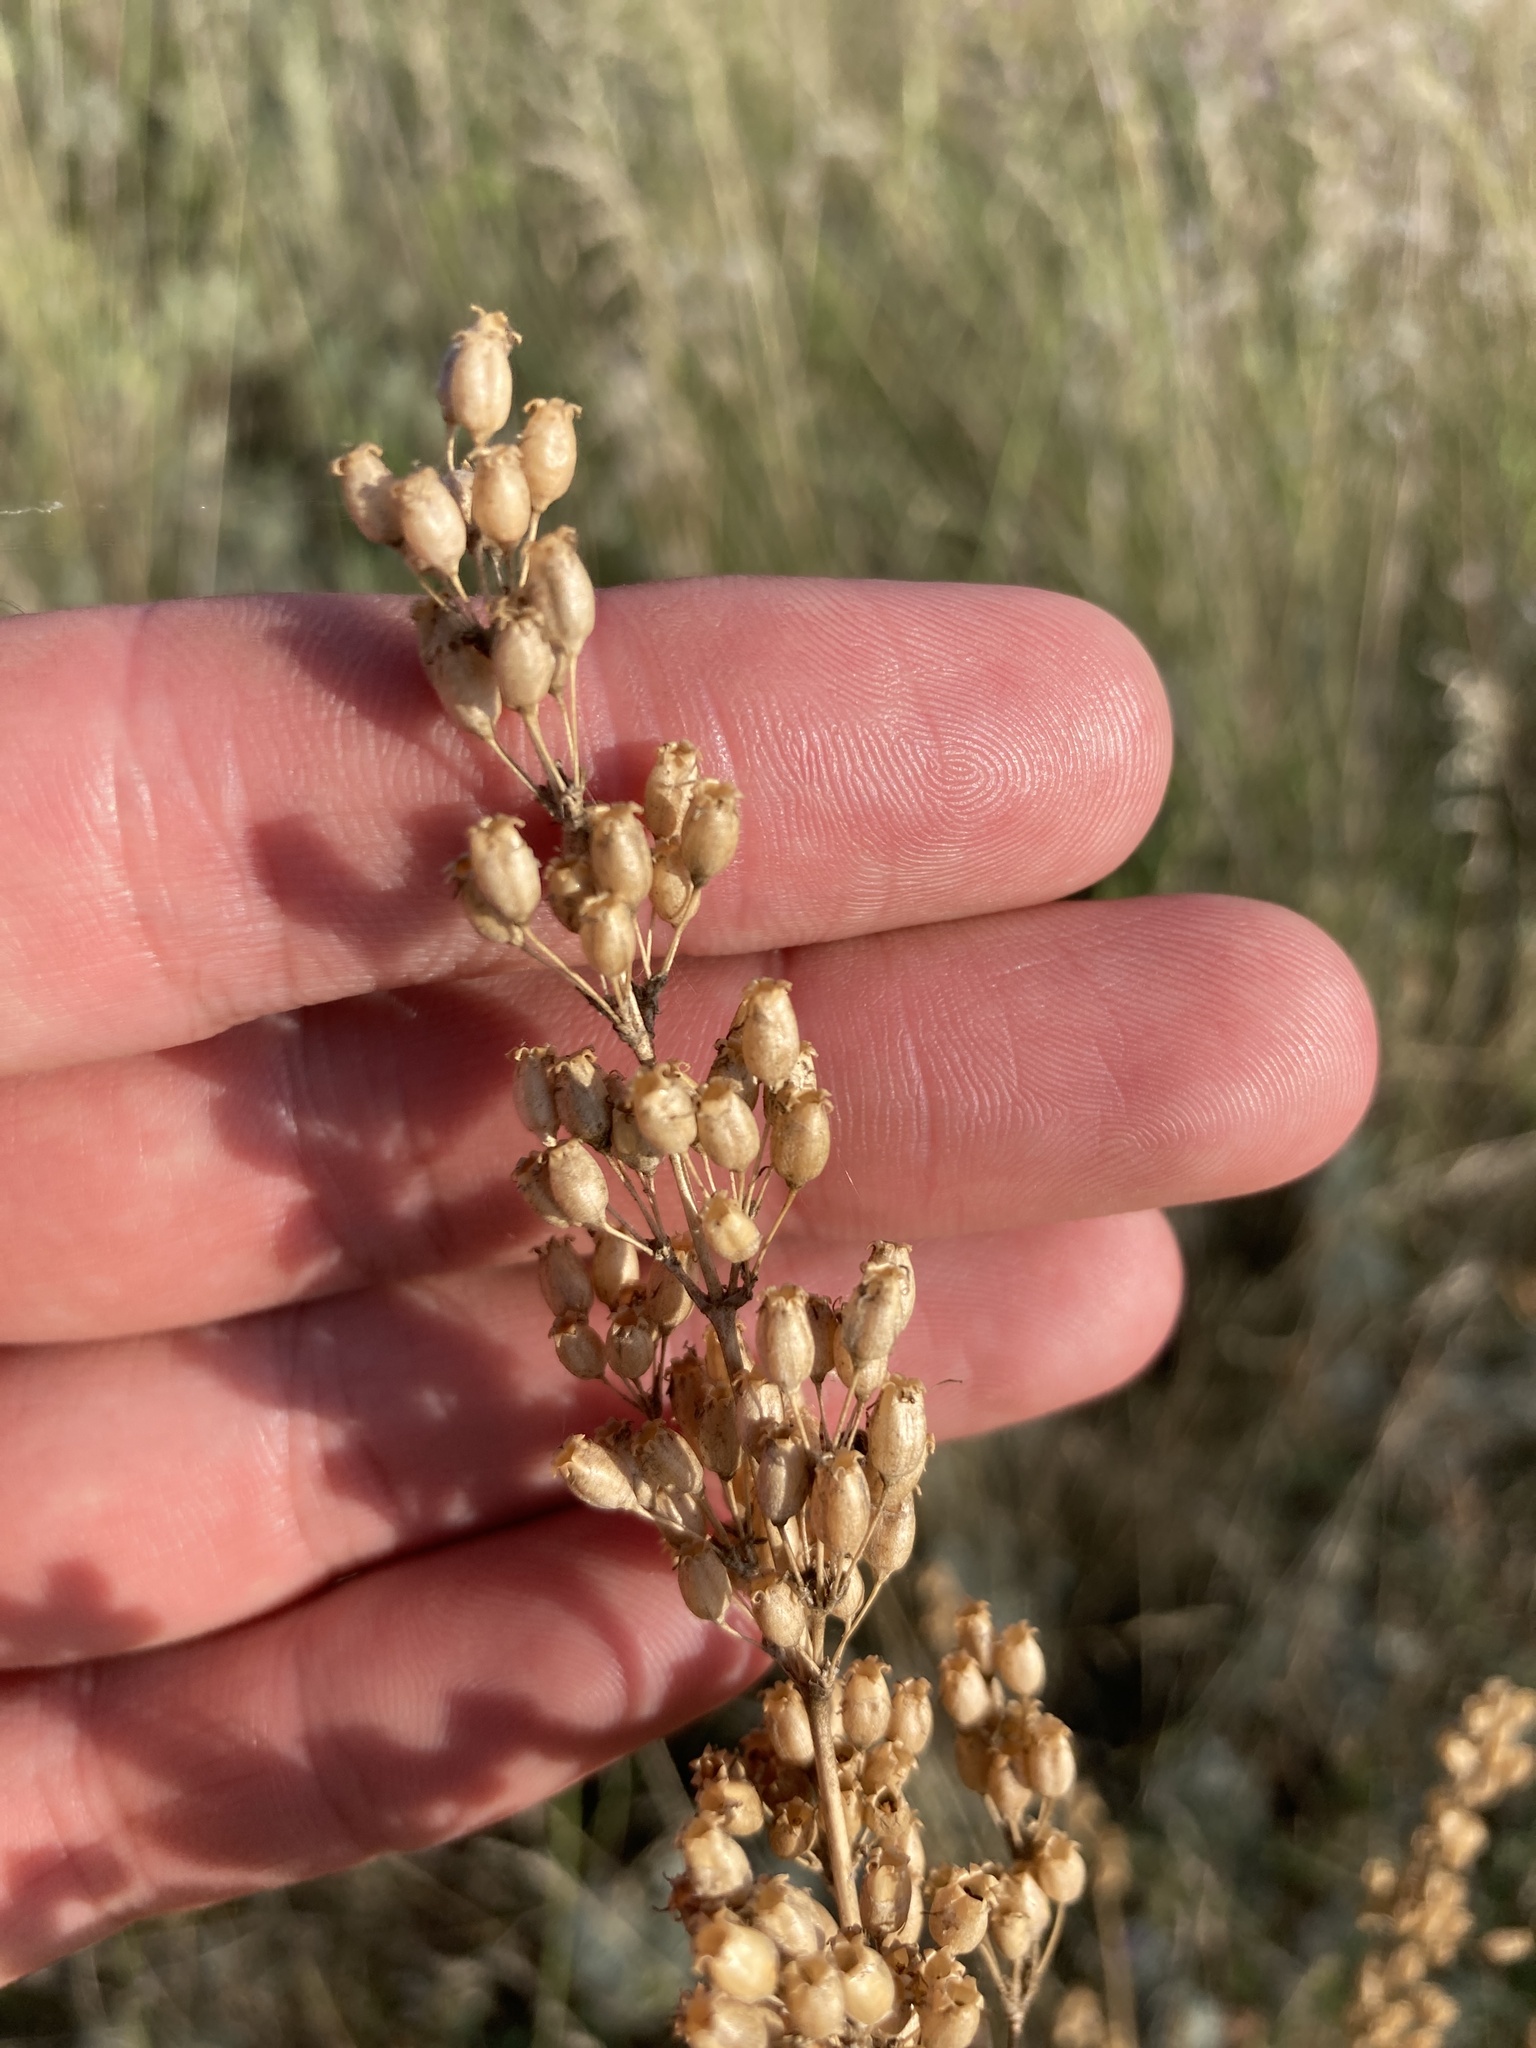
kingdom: Plantae
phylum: Tracheophyta
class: Magnoliopsida
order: Caryophyllales
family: Caryophyllaceae
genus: Silene
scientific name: Silene wolgensis
